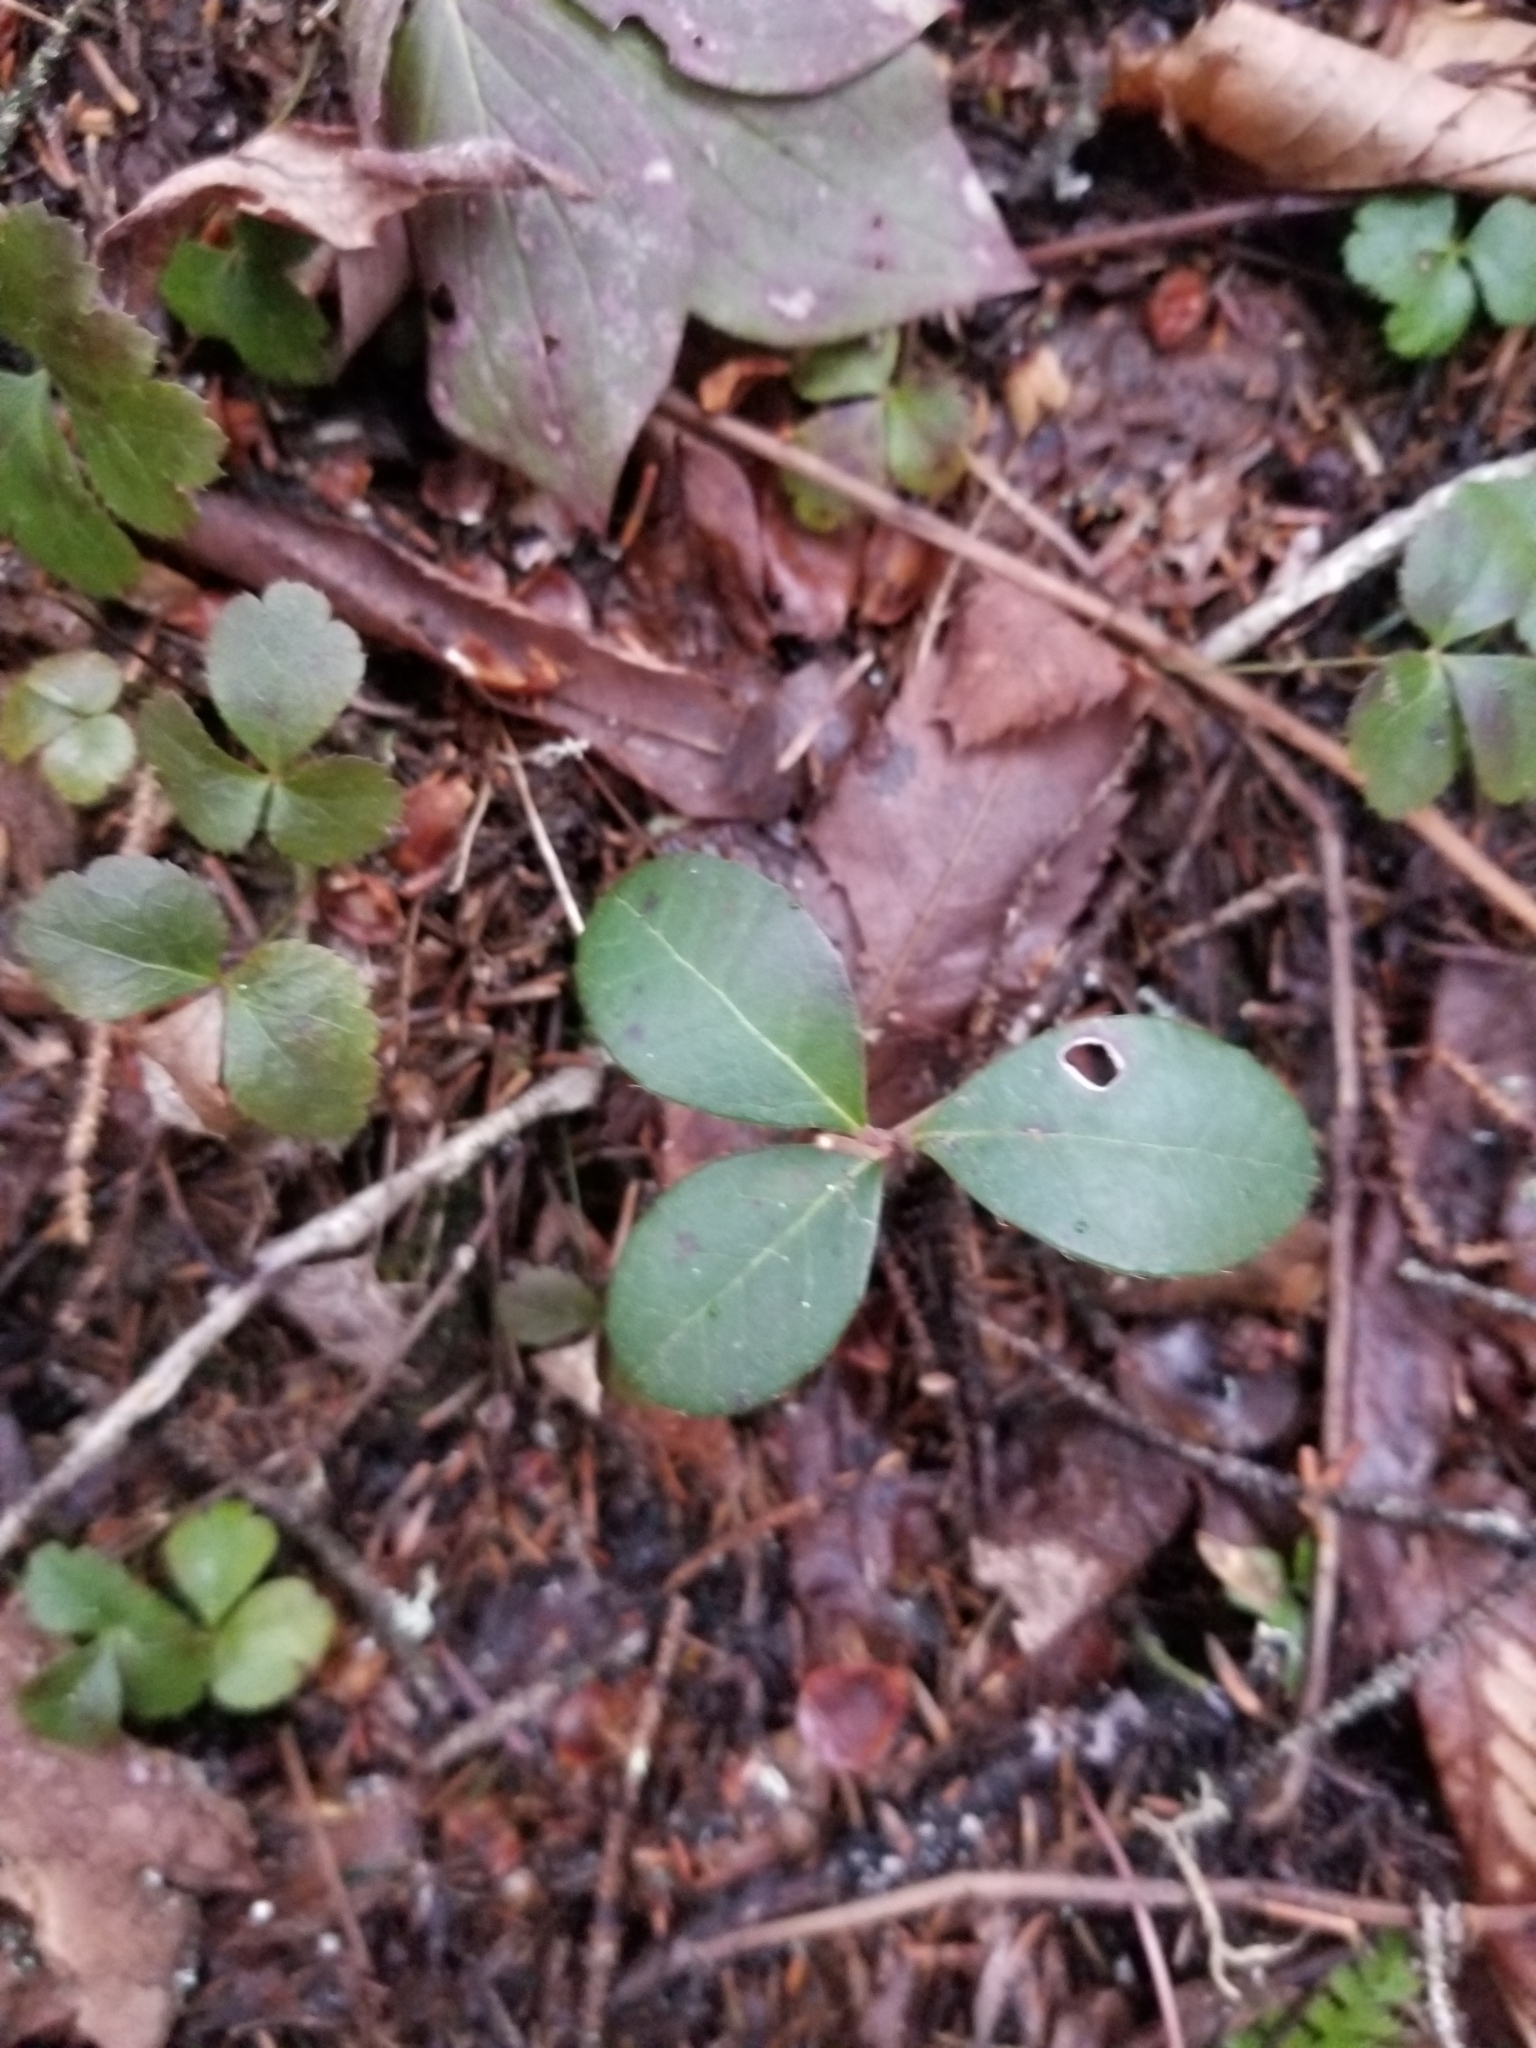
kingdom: Plantae
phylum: Tracheophyta
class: Magnoliopsida
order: Ericales
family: Ericaceae
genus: Gaultheria
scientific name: Gaultheria procumbens
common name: Checkerberry
